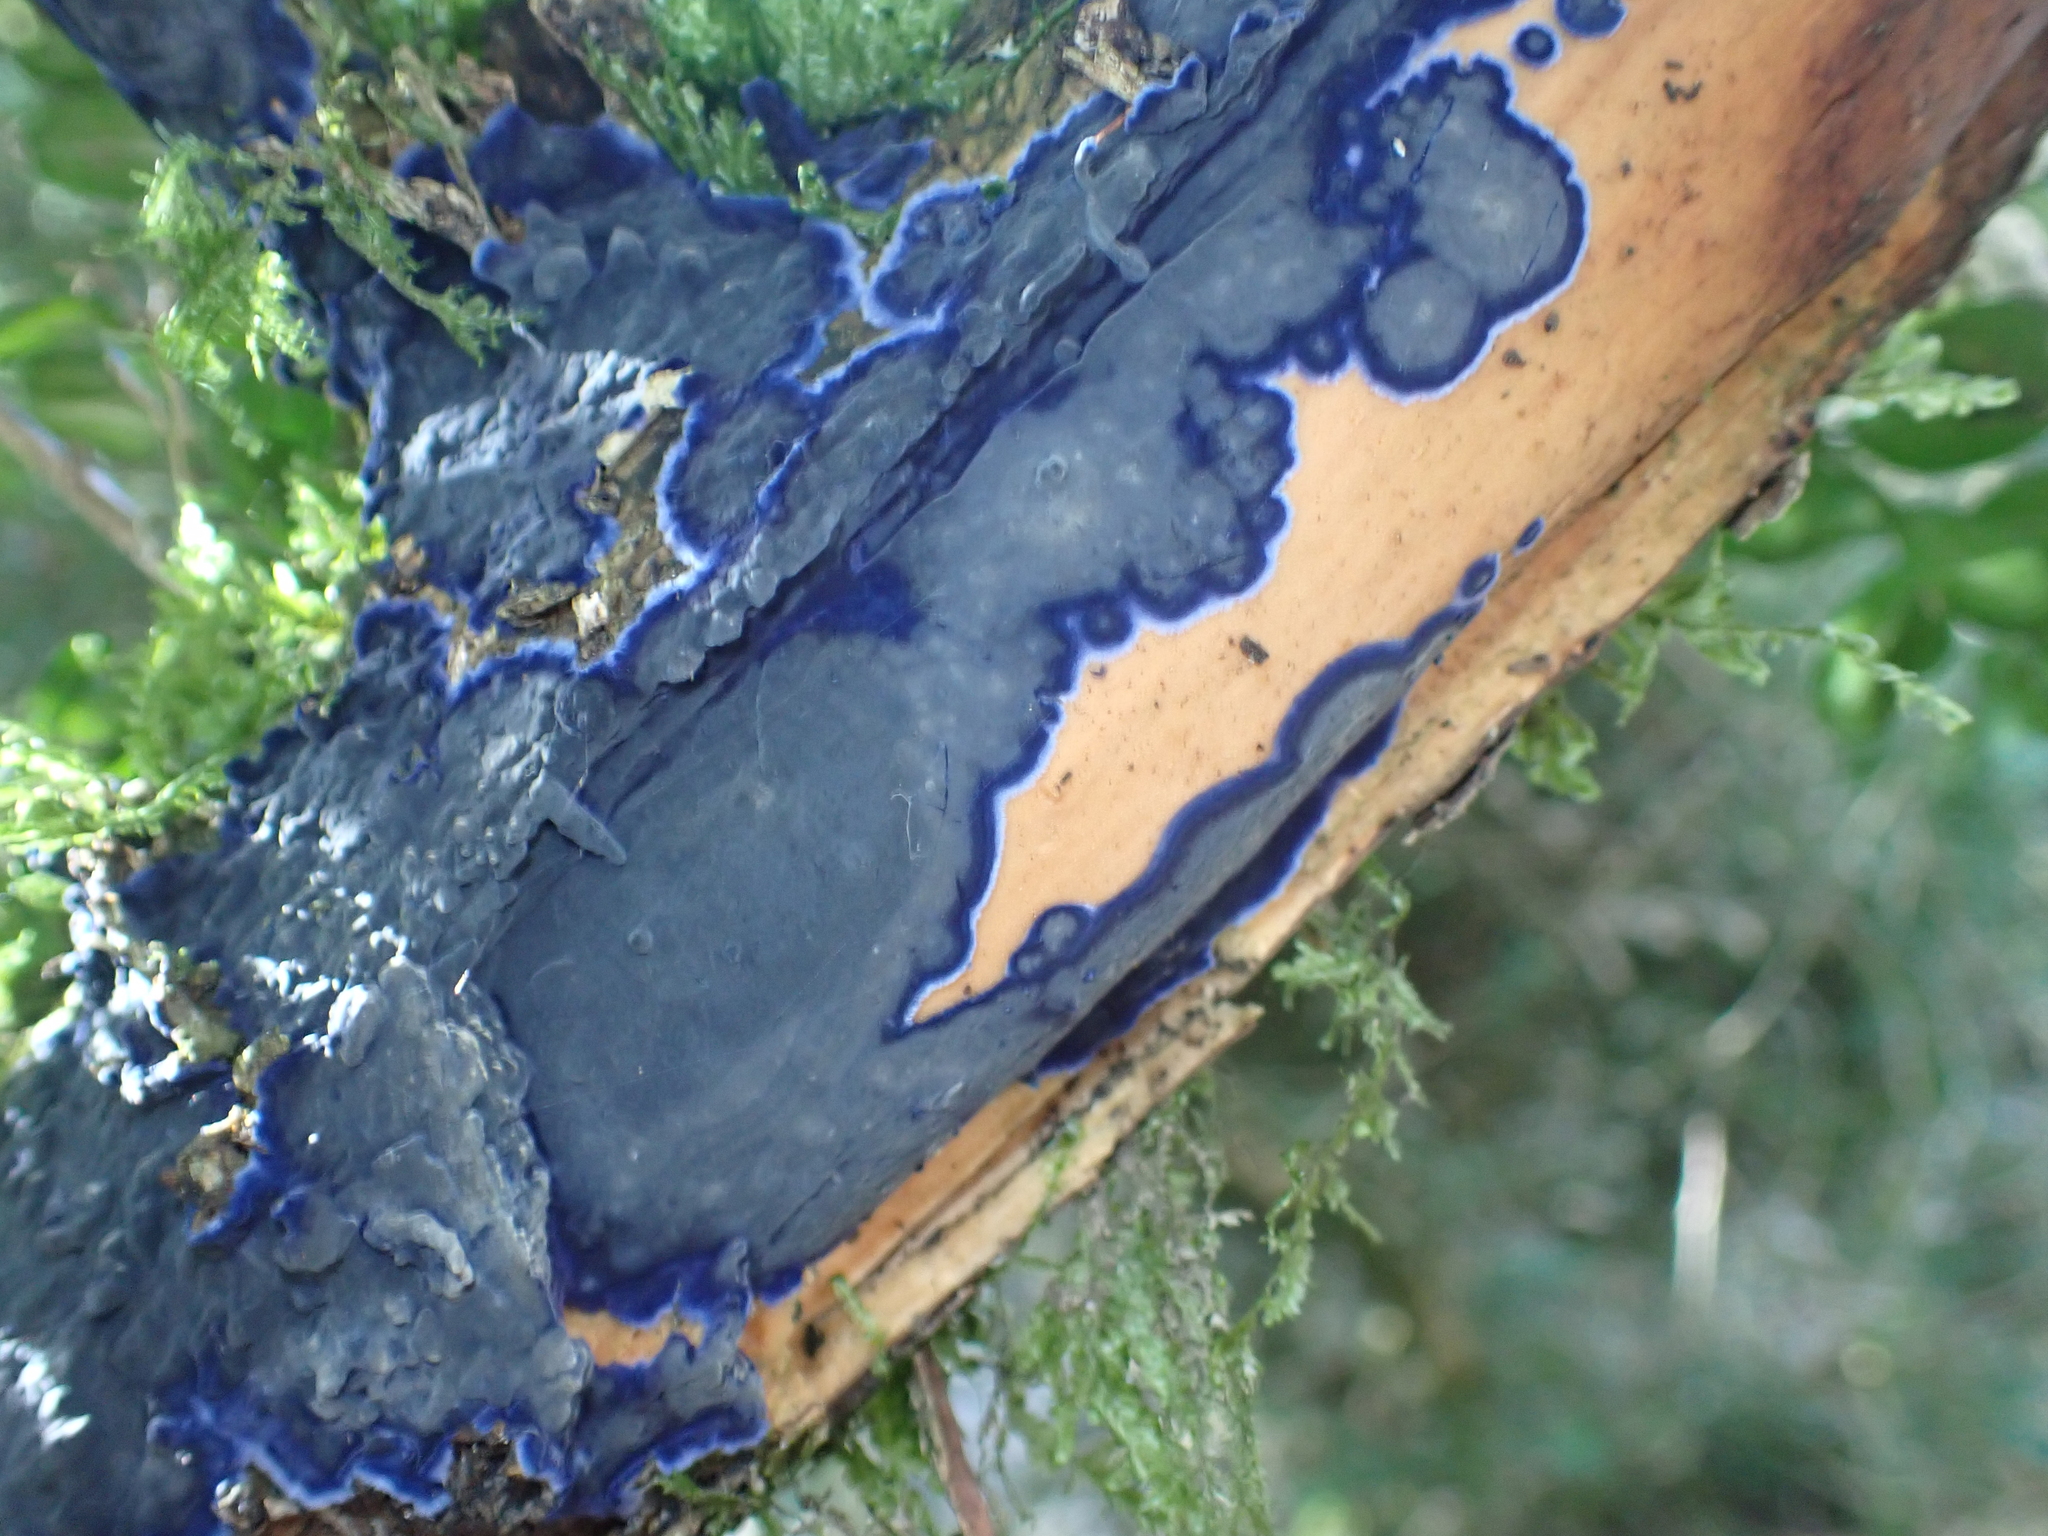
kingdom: Fungi
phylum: Basidiomycota
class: Agaricomycetes
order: Polyporales
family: Phanerochaetaceae
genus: Terana
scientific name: Terana coerulea
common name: Cobalt crust
